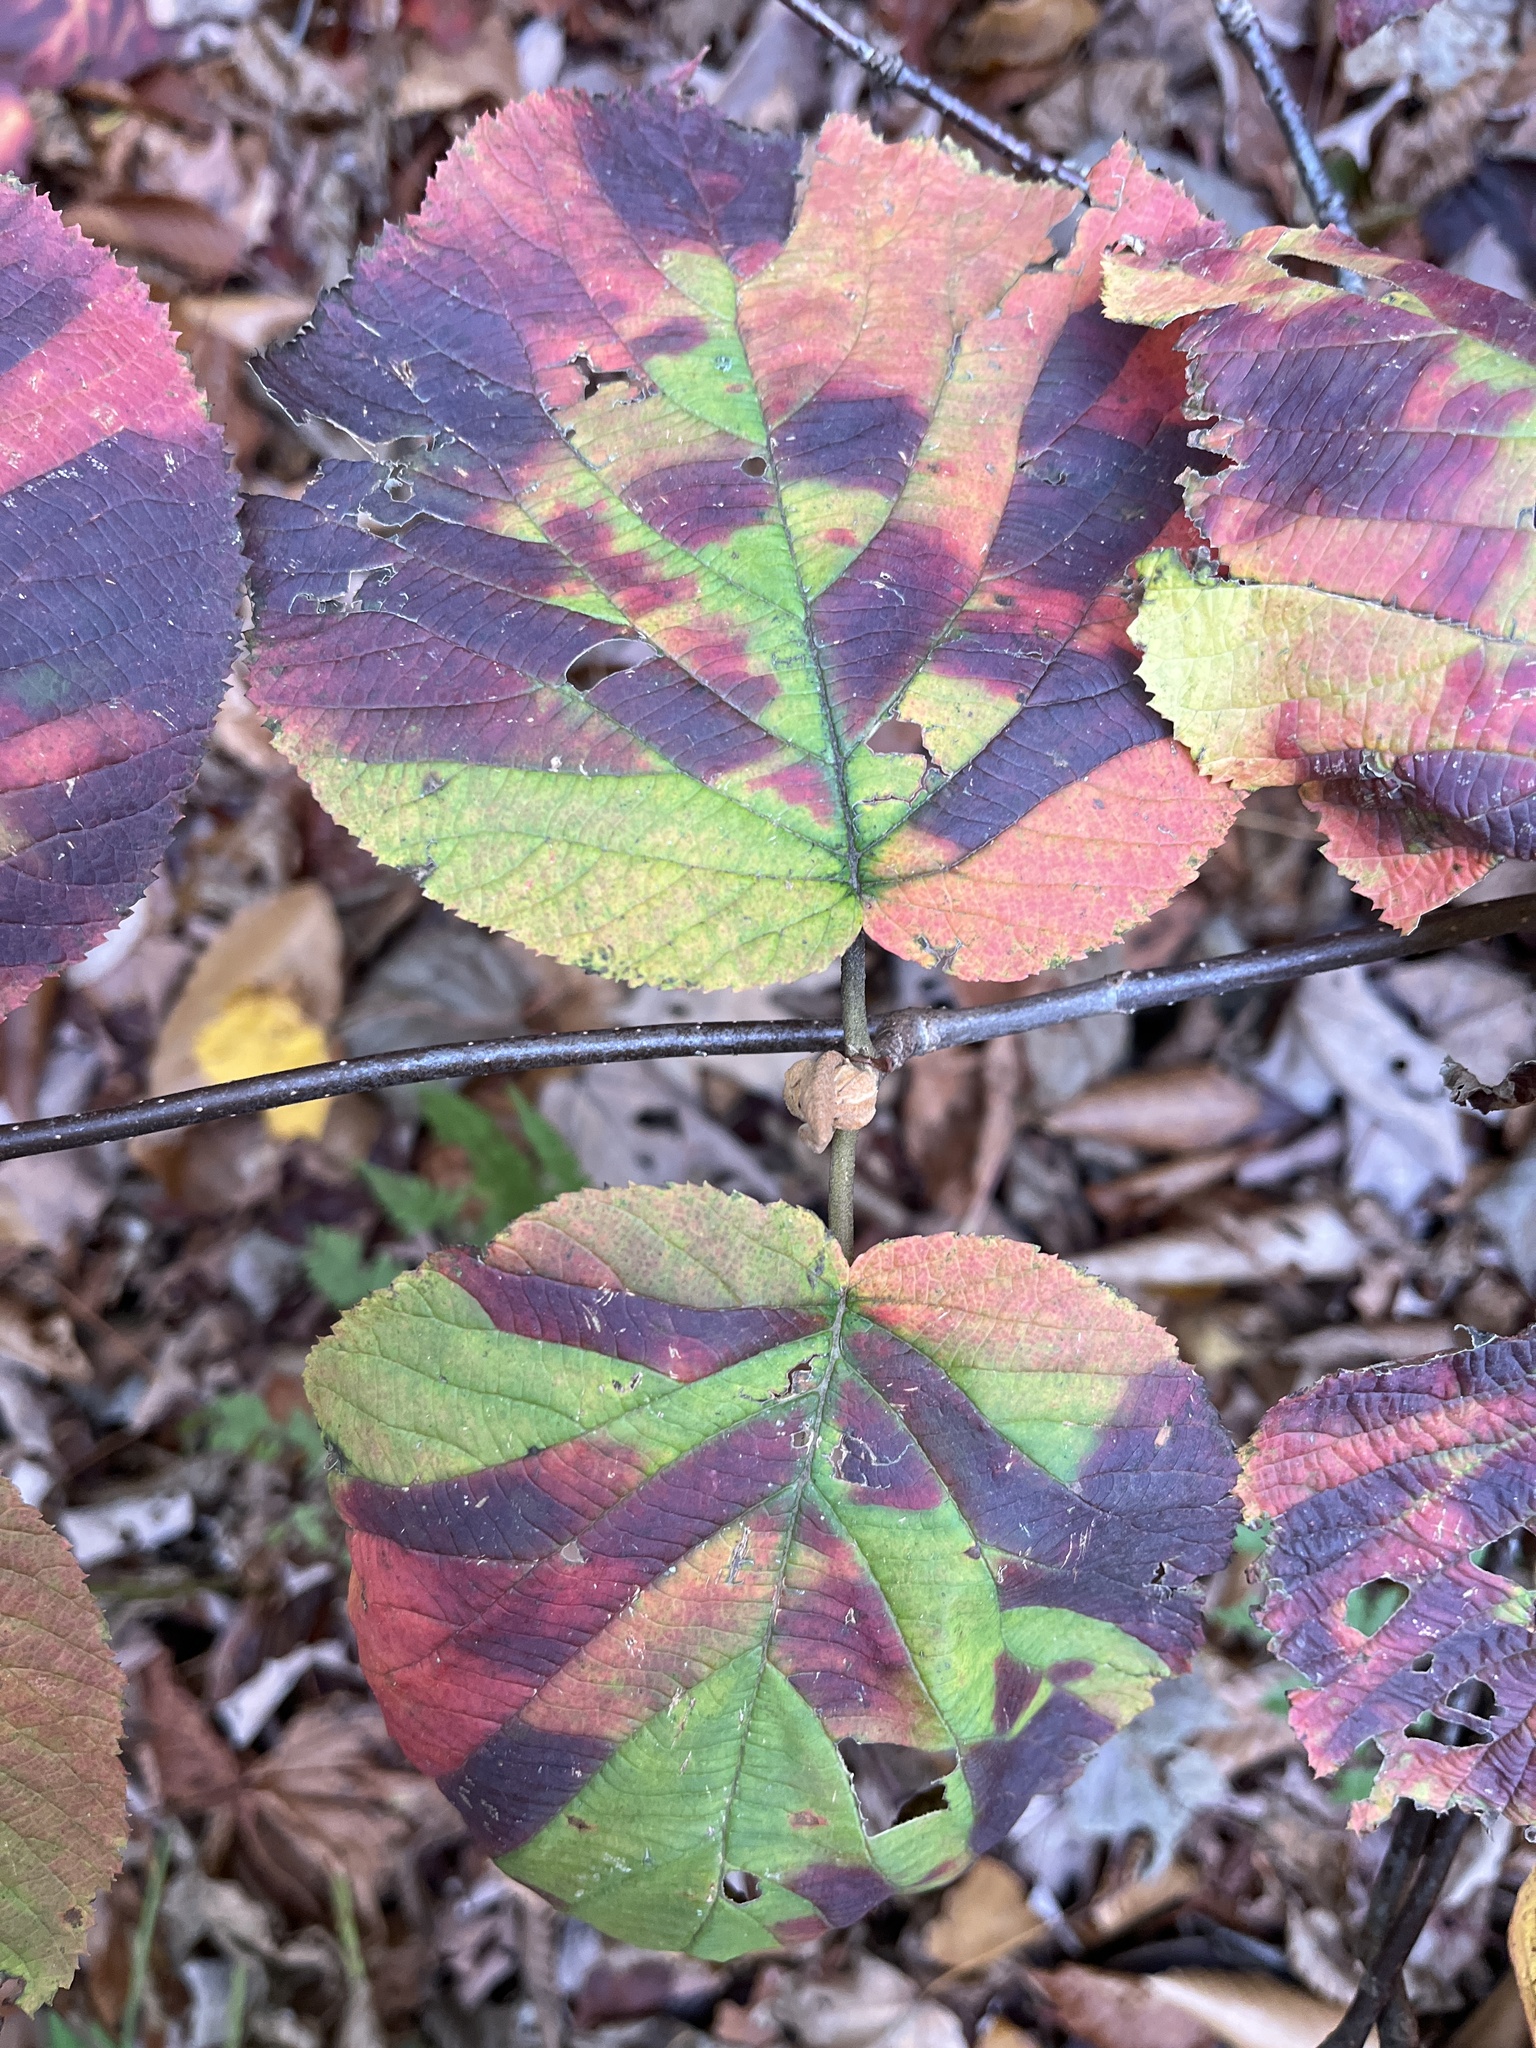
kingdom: Plantae
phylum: Tracheophyta
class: Magnoliopsida
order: Dipsacales
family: Viburnaceae
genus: Viburnum
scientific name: Viburnum lantanoides
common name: Hobblebush
